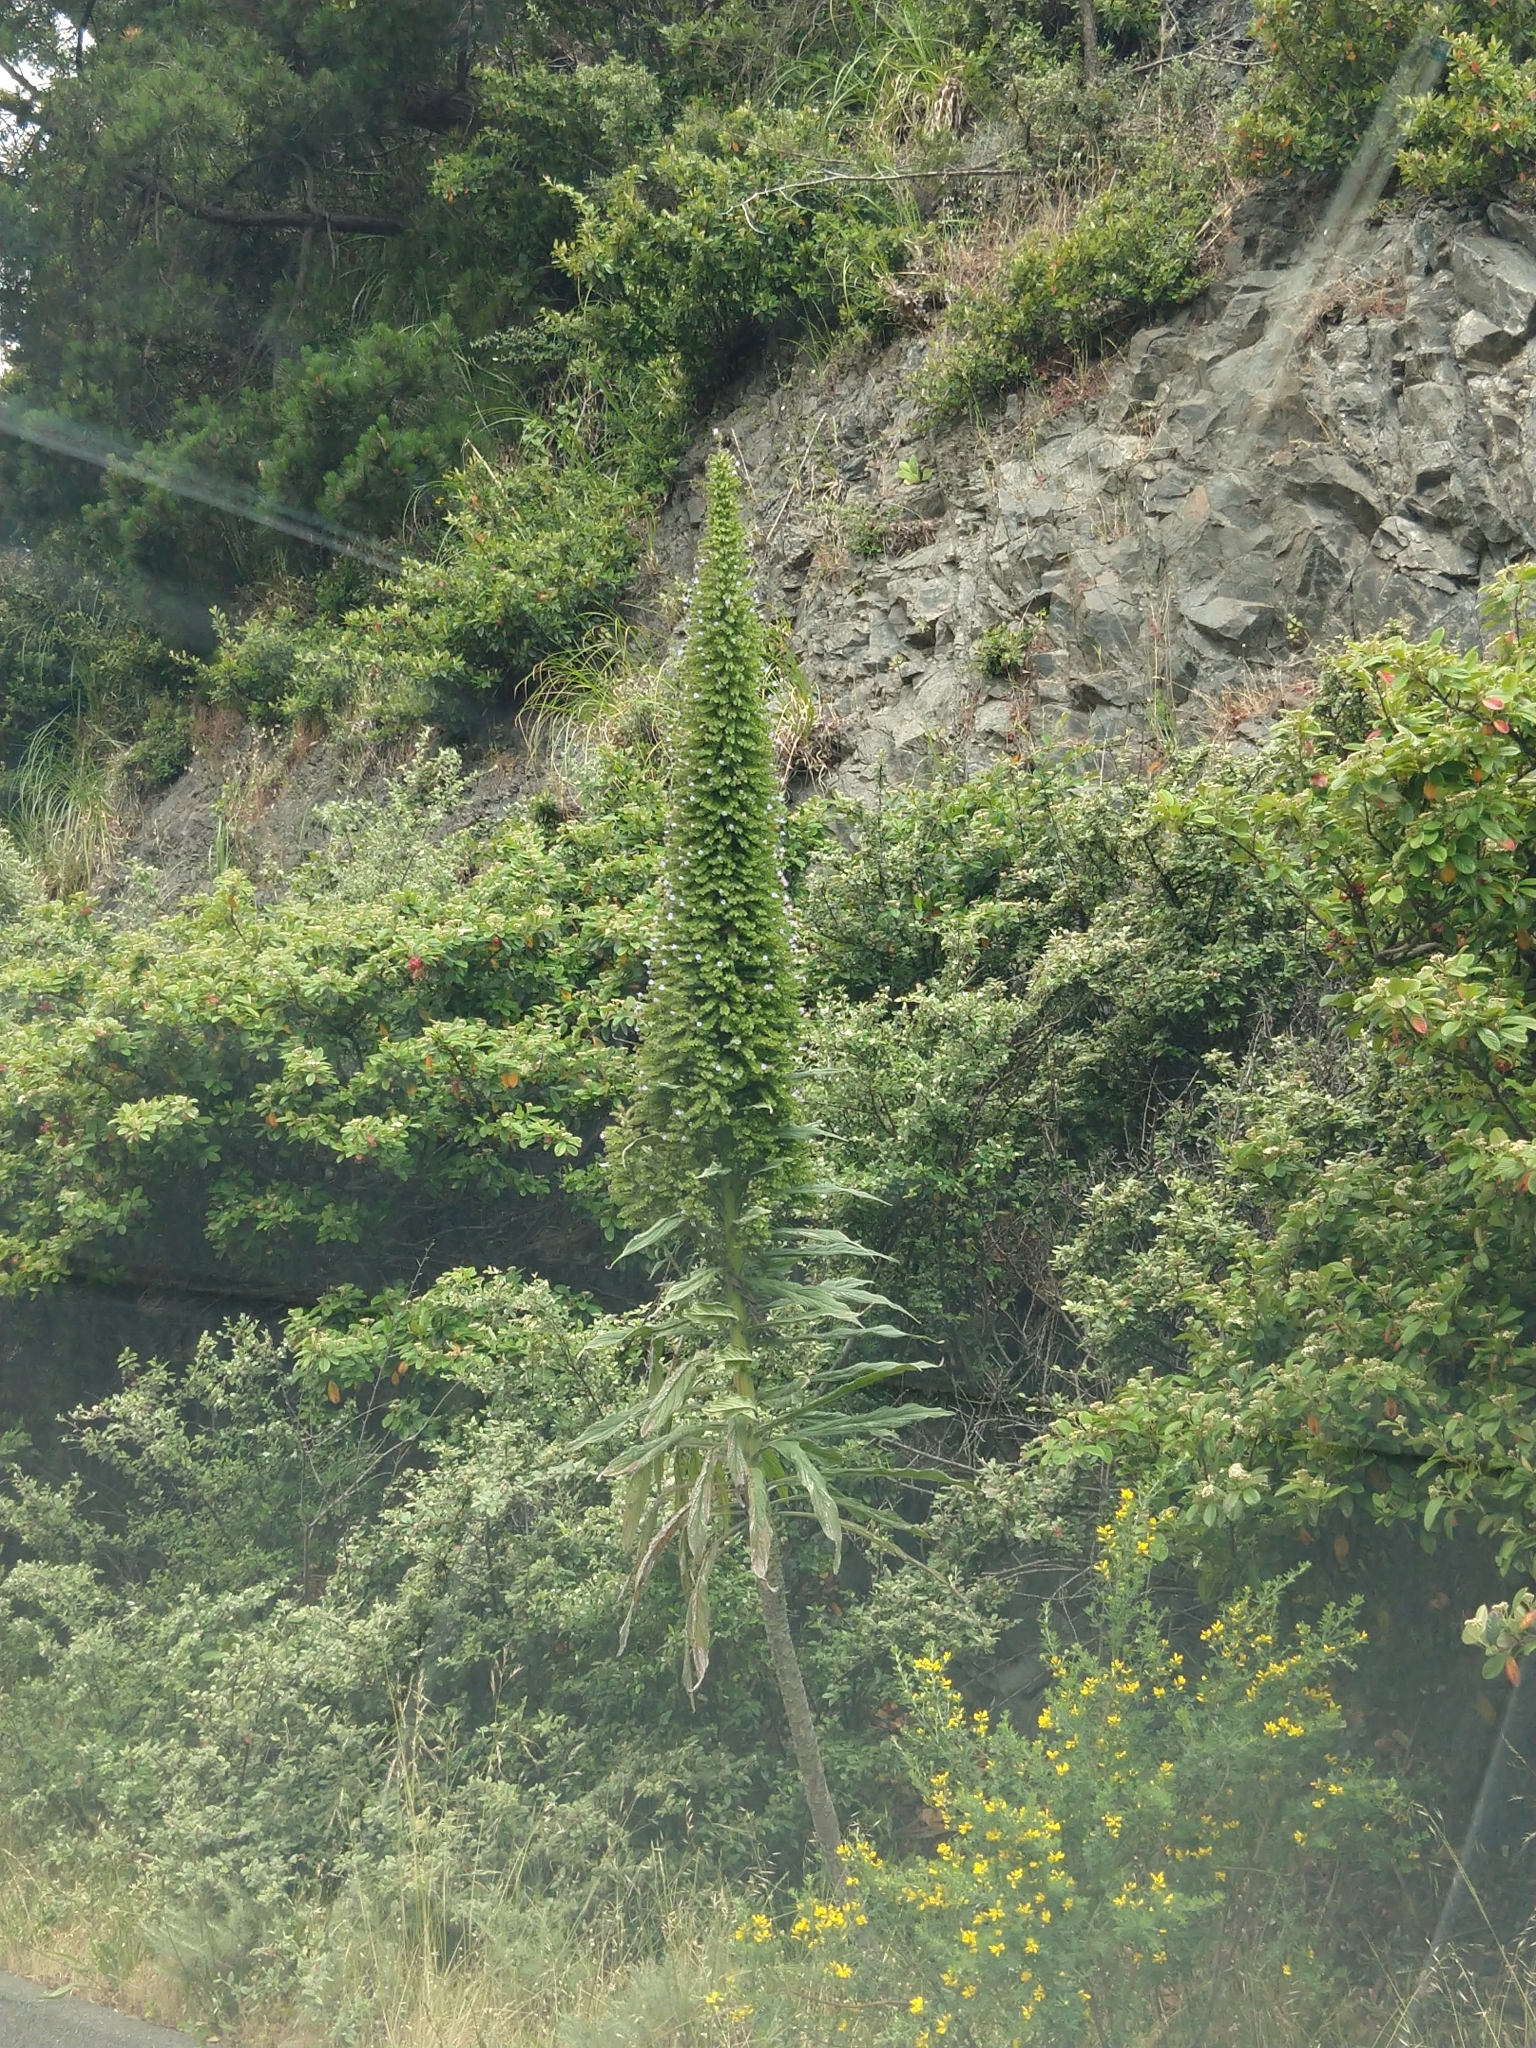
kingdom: Plantae
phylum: Tracheophyta
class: Magnoliopsida
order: Boraginales
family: Boraginaceae
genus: Echium
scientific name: Echium pininana
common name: Giant viper's-bugloss
